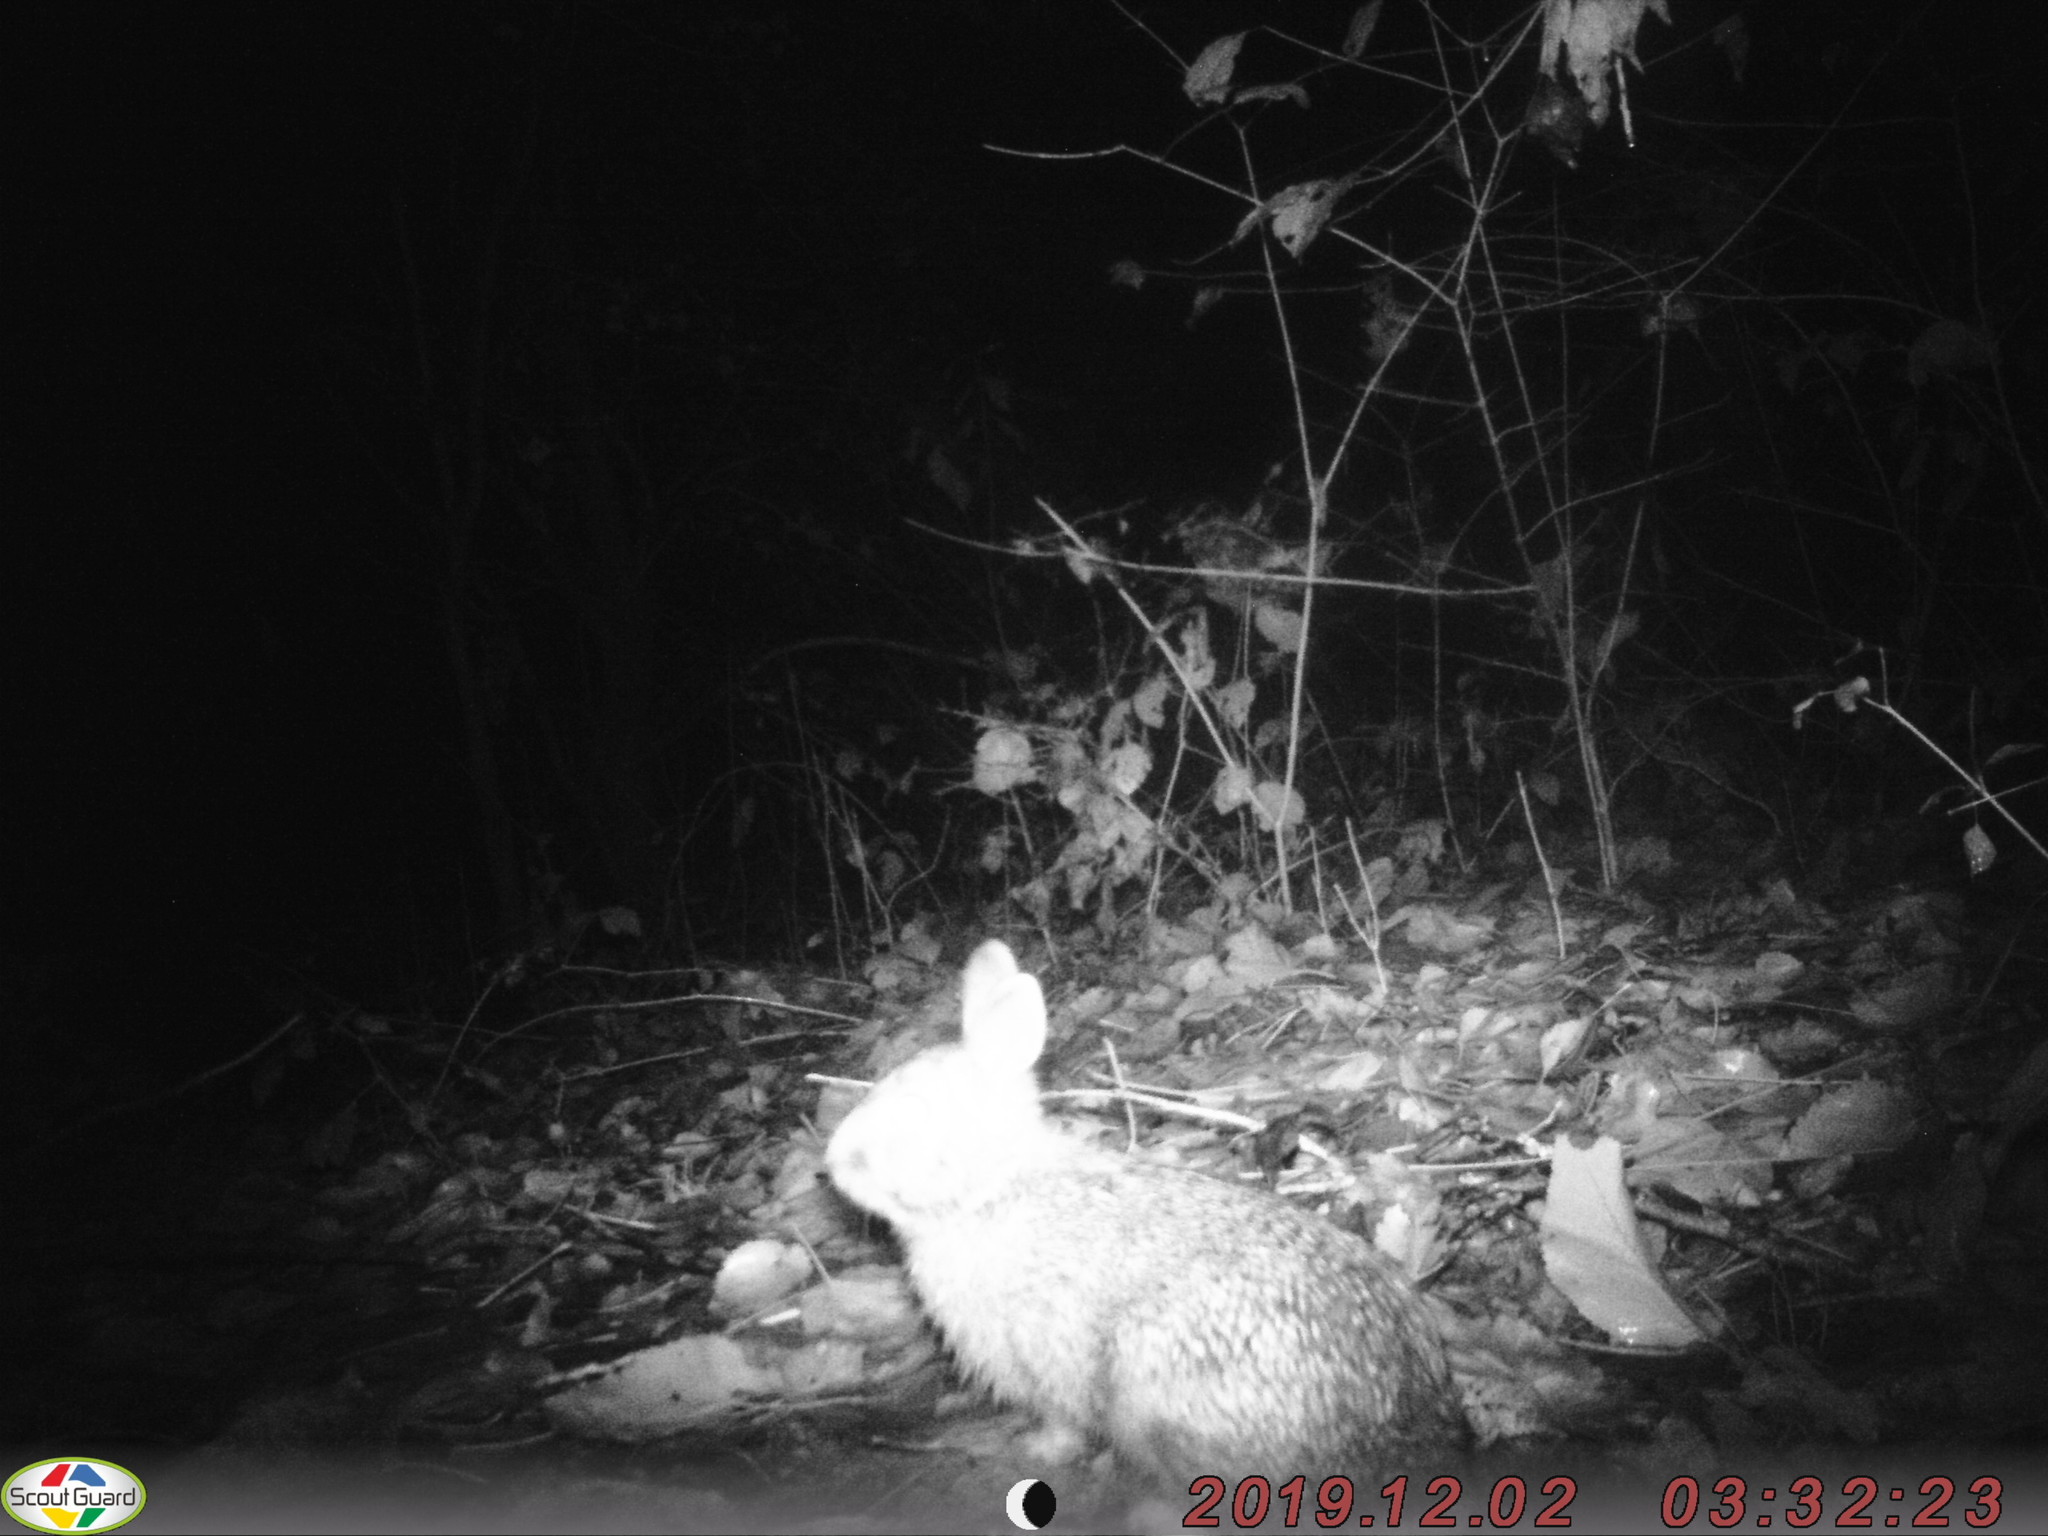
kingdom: Animalia
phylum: Chordata
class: Mammalia
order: Lagomorpha
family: Leporidae
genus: Sylvilagus
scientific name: Sylvilagus floridanus
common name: Eastern cottontail
